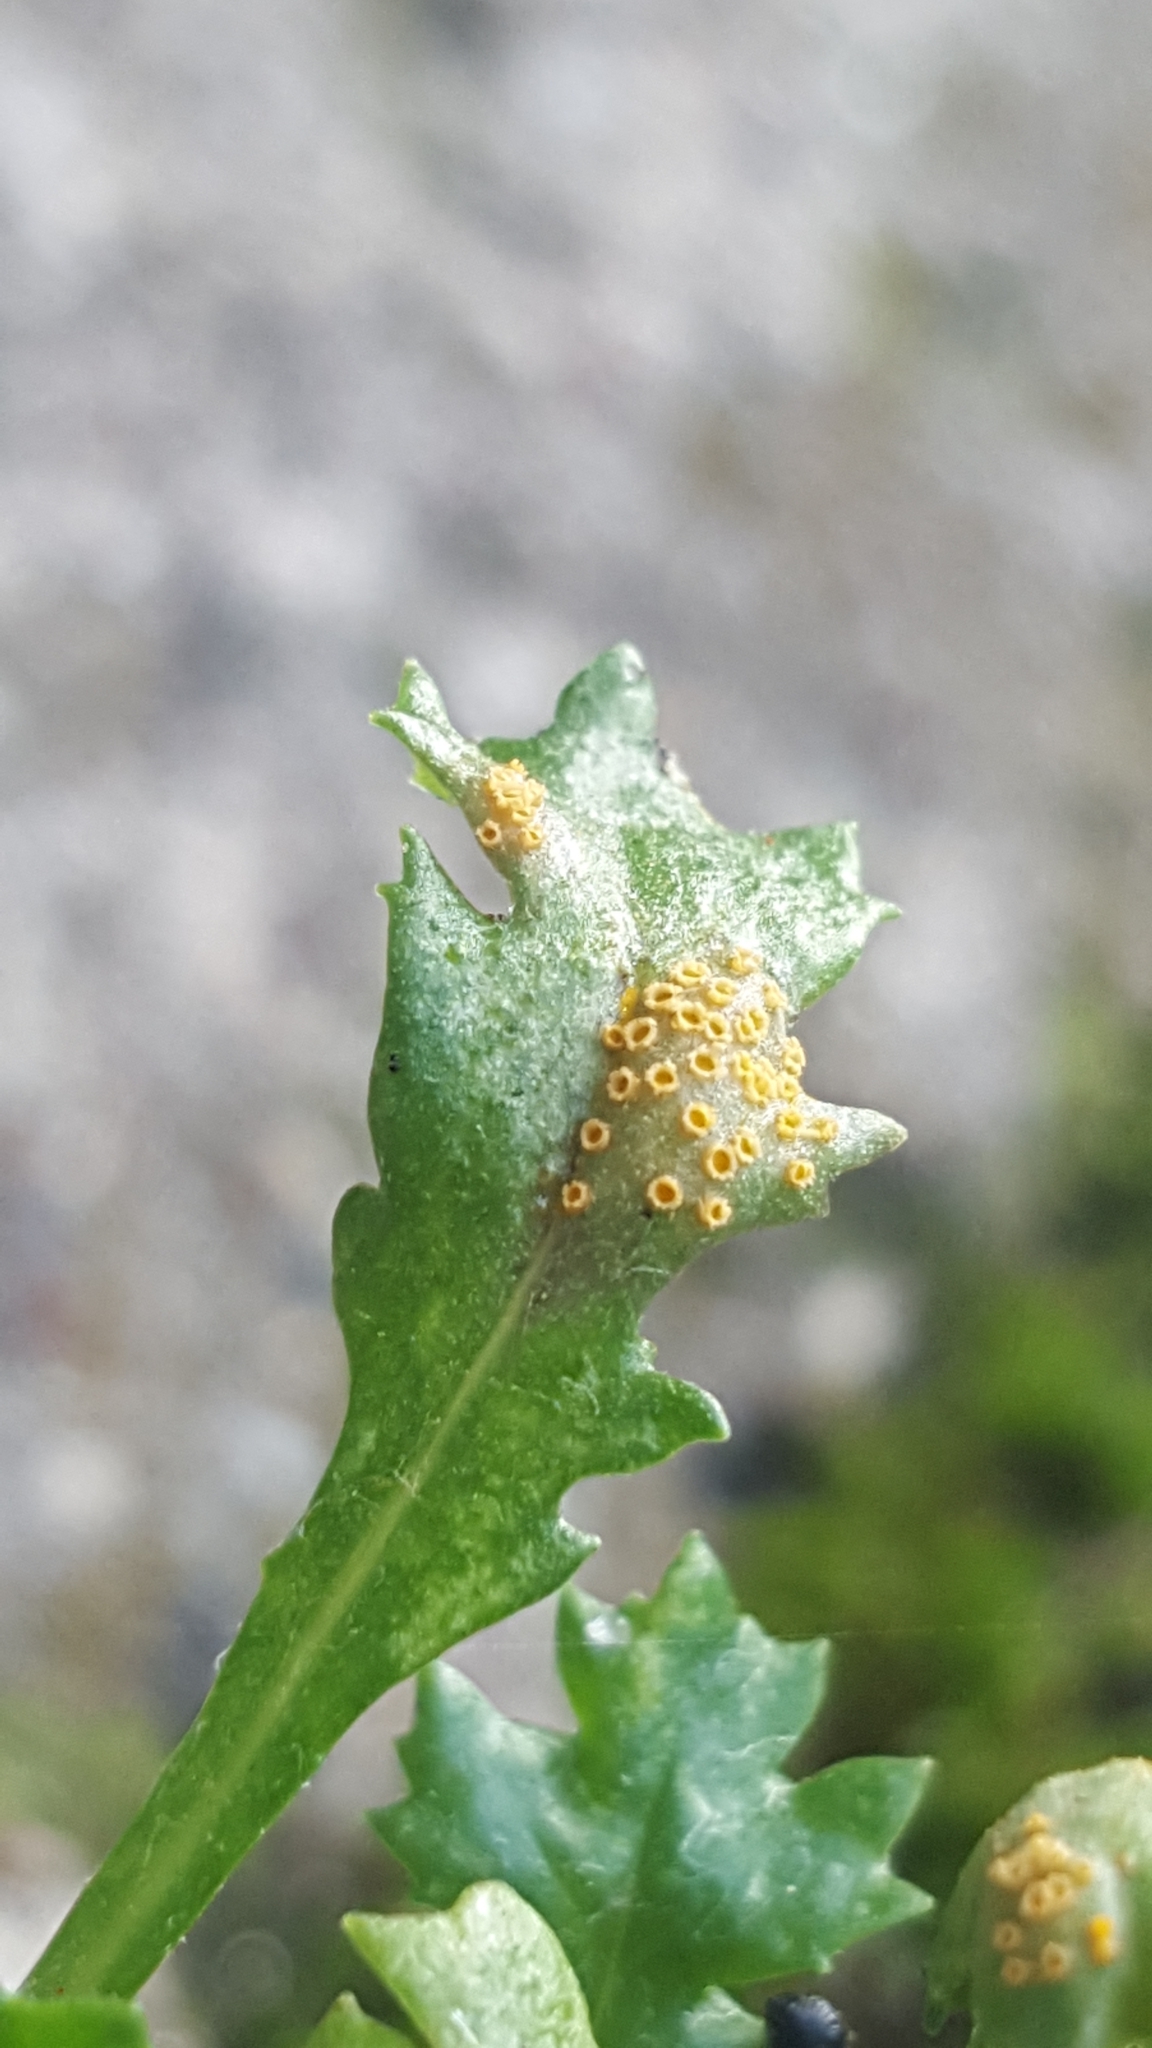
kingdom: Fungi
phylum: Basidiomycota
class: Pucciniomycetes
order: Pucciniales
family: Pucciniaceae
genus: Puccinia
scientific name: Puccinia lagenophorae
